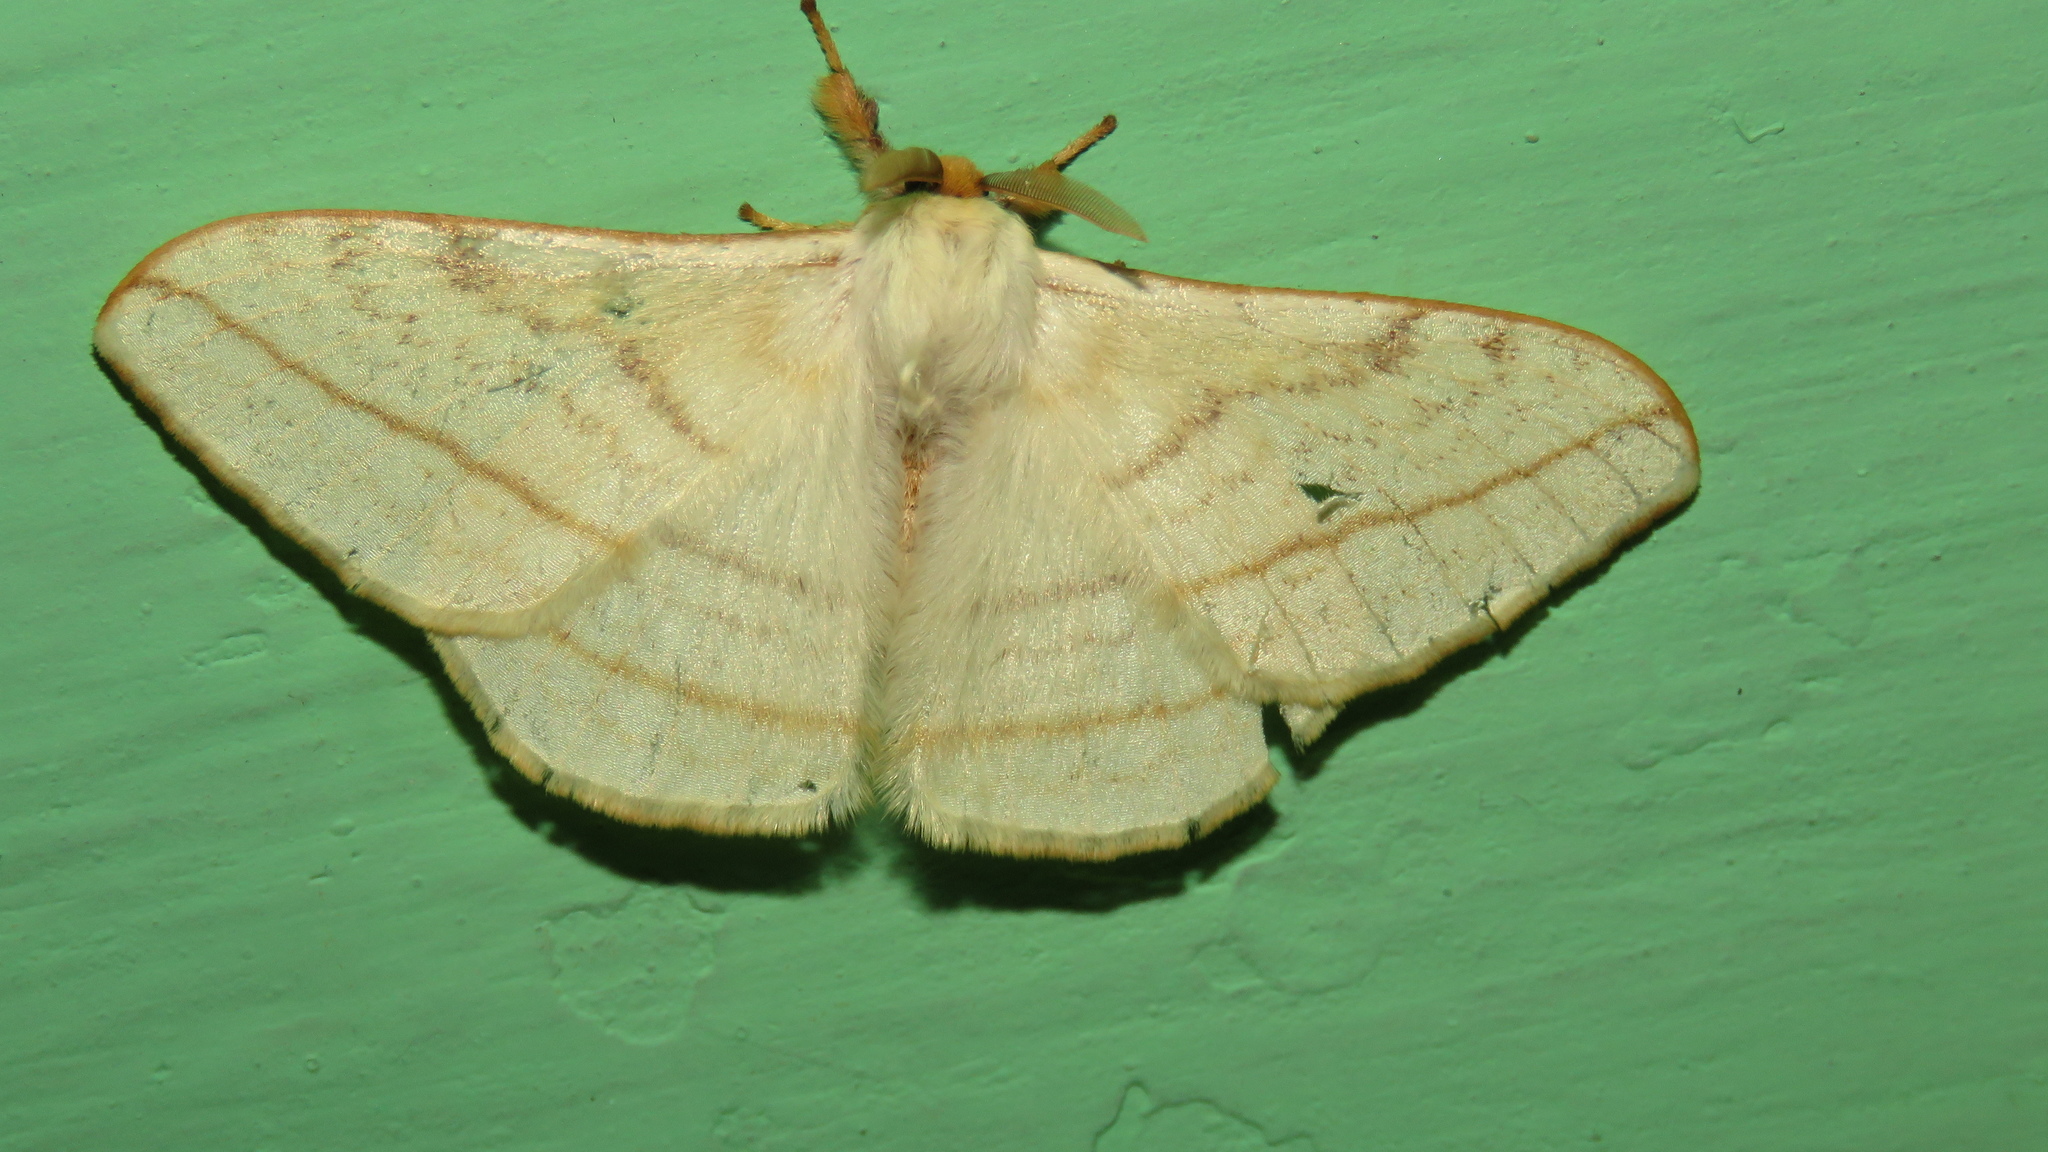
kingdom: Animalia
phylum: Arthropoda
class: Insecta
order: Lepidoptera
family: Eupterotidae
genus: Eupterote
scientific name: Eupterote
